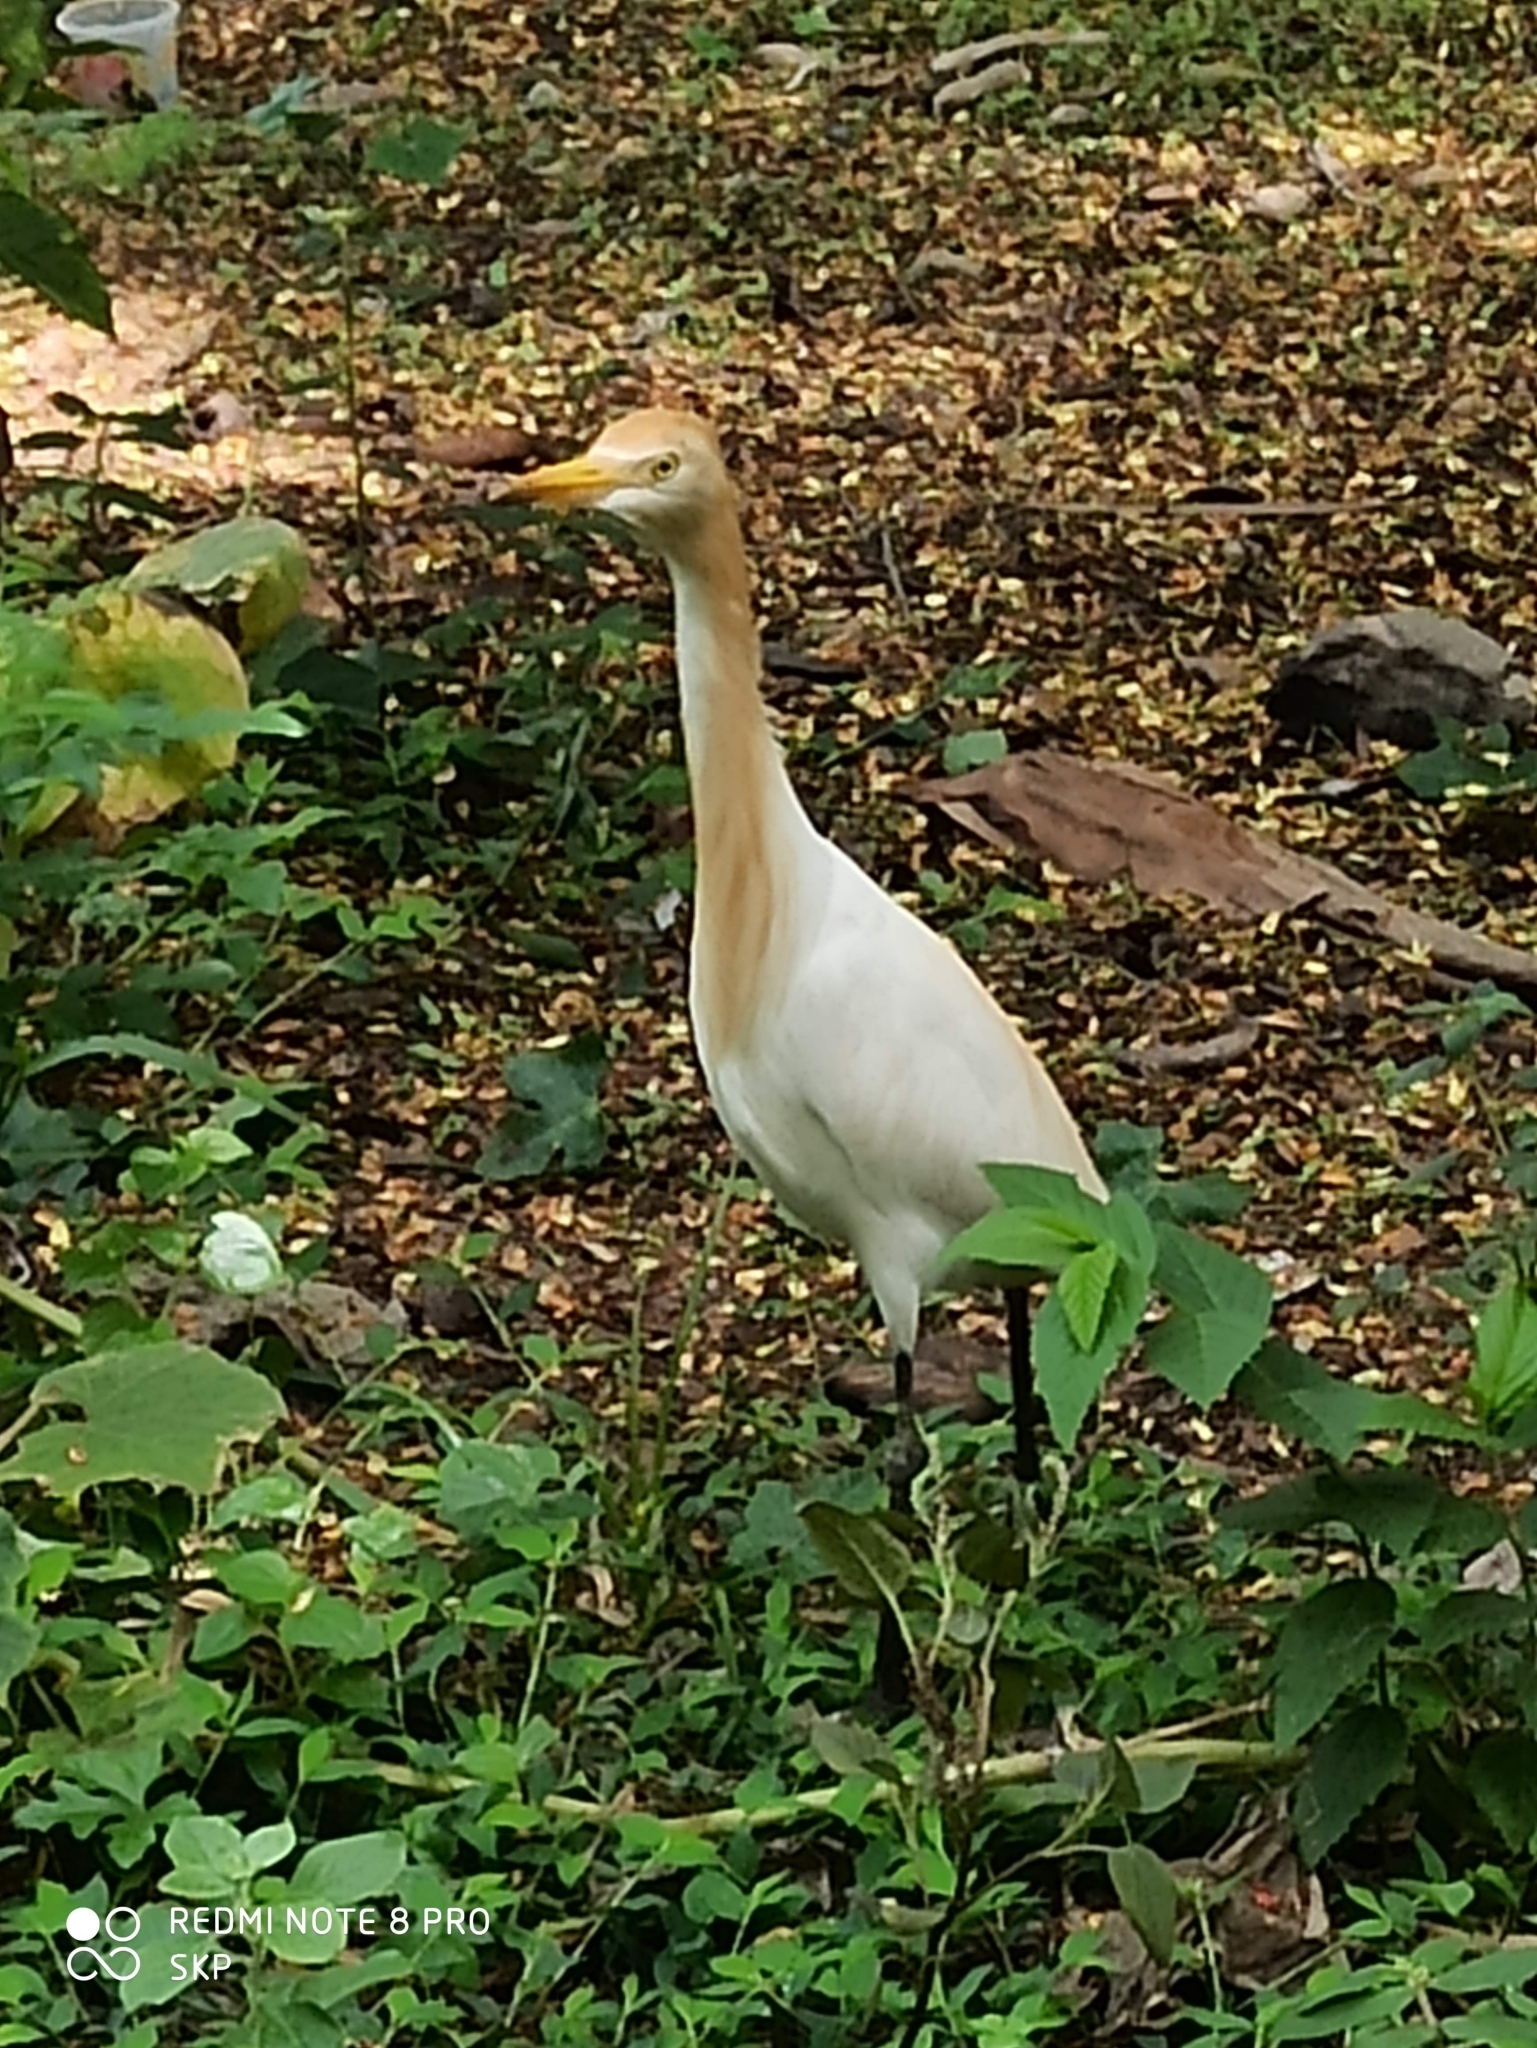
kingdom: Animalia
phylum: Chordata
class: Aves
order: Pelecaniformes
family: Ardeidae
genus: Bubulcus
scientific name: Bubulcus coromandus
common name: Eastern cattle egret
